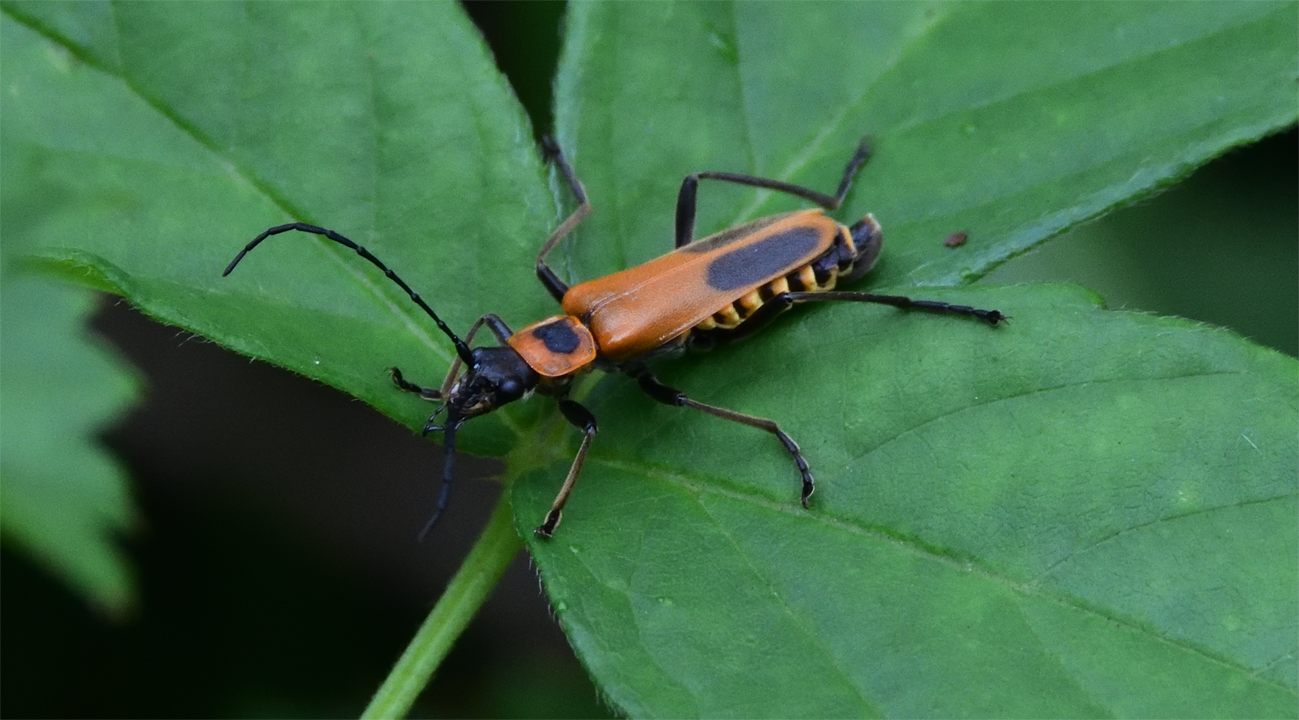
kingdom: Animalia
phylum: Arthropoda
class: Insecta
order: Coleoptera
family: Cantharidae
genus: Chauliognathus
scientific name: Chauliognathus pensylvanicus
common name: Goldenrod soldier beetle
